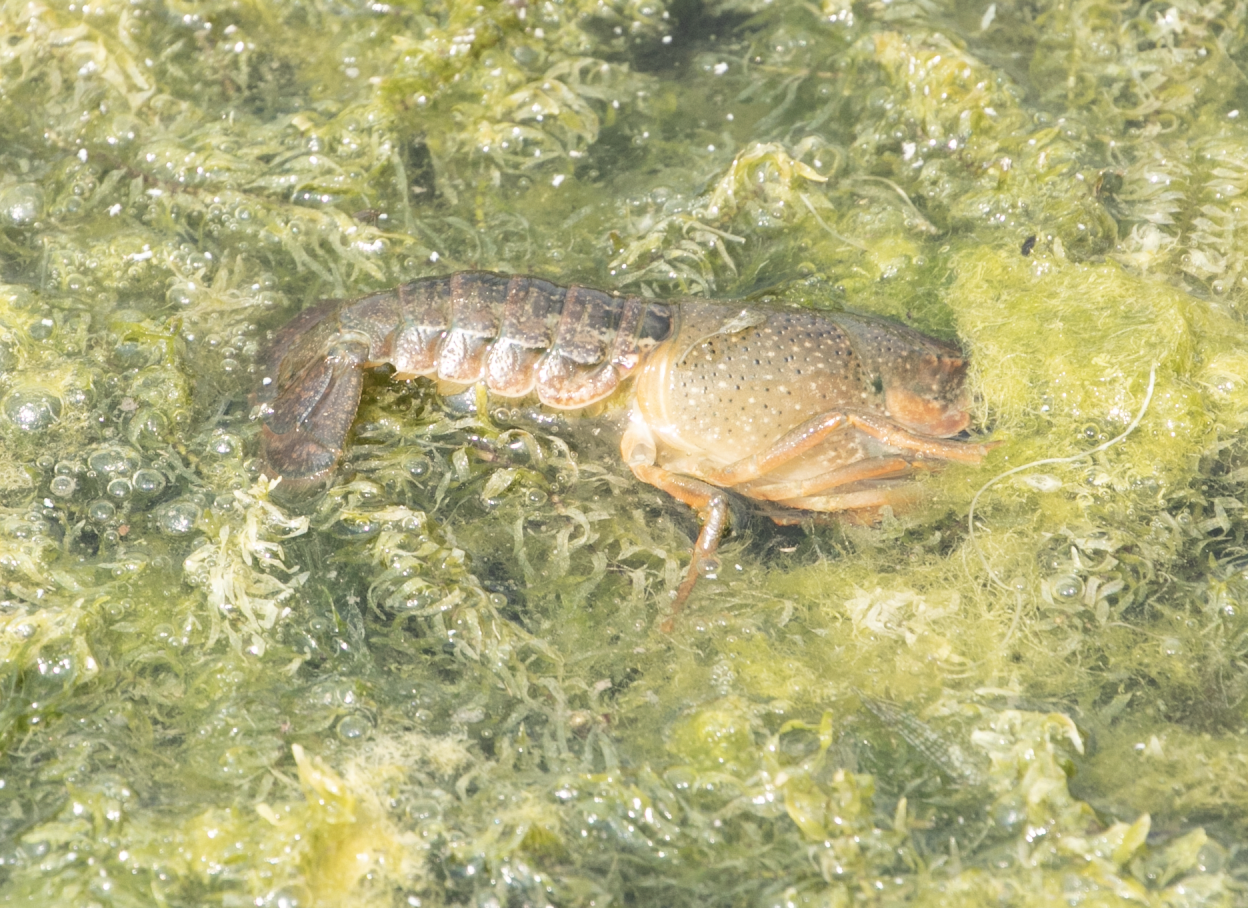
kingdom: Animalia
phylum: Arthropoda
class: Malacostraca
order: Decapoda
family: Cambaridae
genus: Procambarus
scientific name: Procambarus clarkii
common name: Red swamp crayfish
